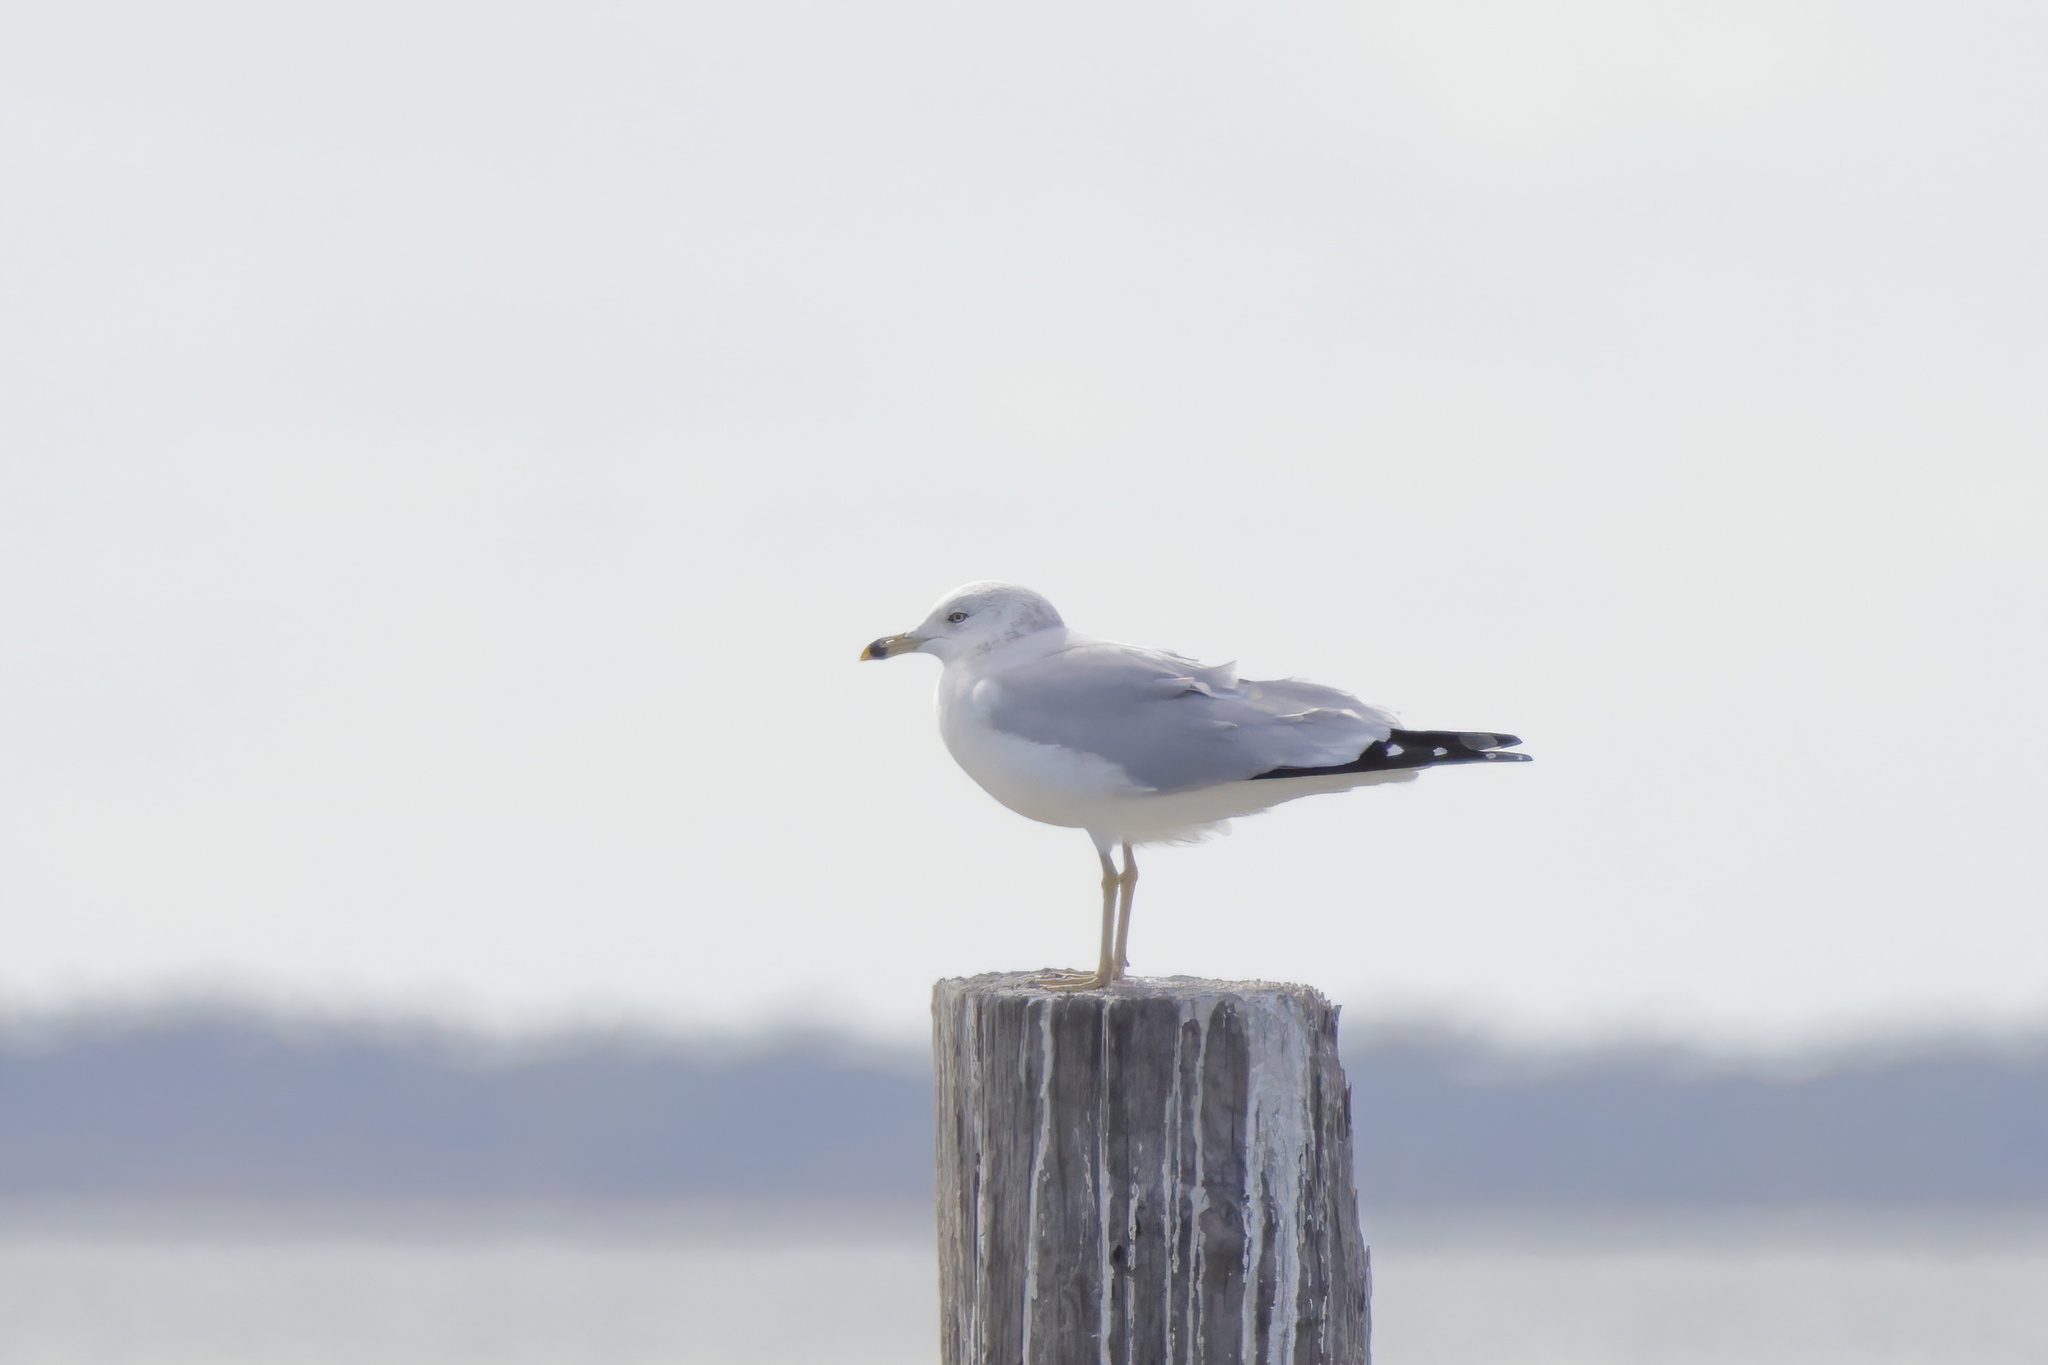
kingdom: Animalia
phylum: Chordata
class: Aves
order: Charadriiformes
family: Laridae
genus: Larus
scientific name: Larus delawarensis
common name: Ring-billed gull
